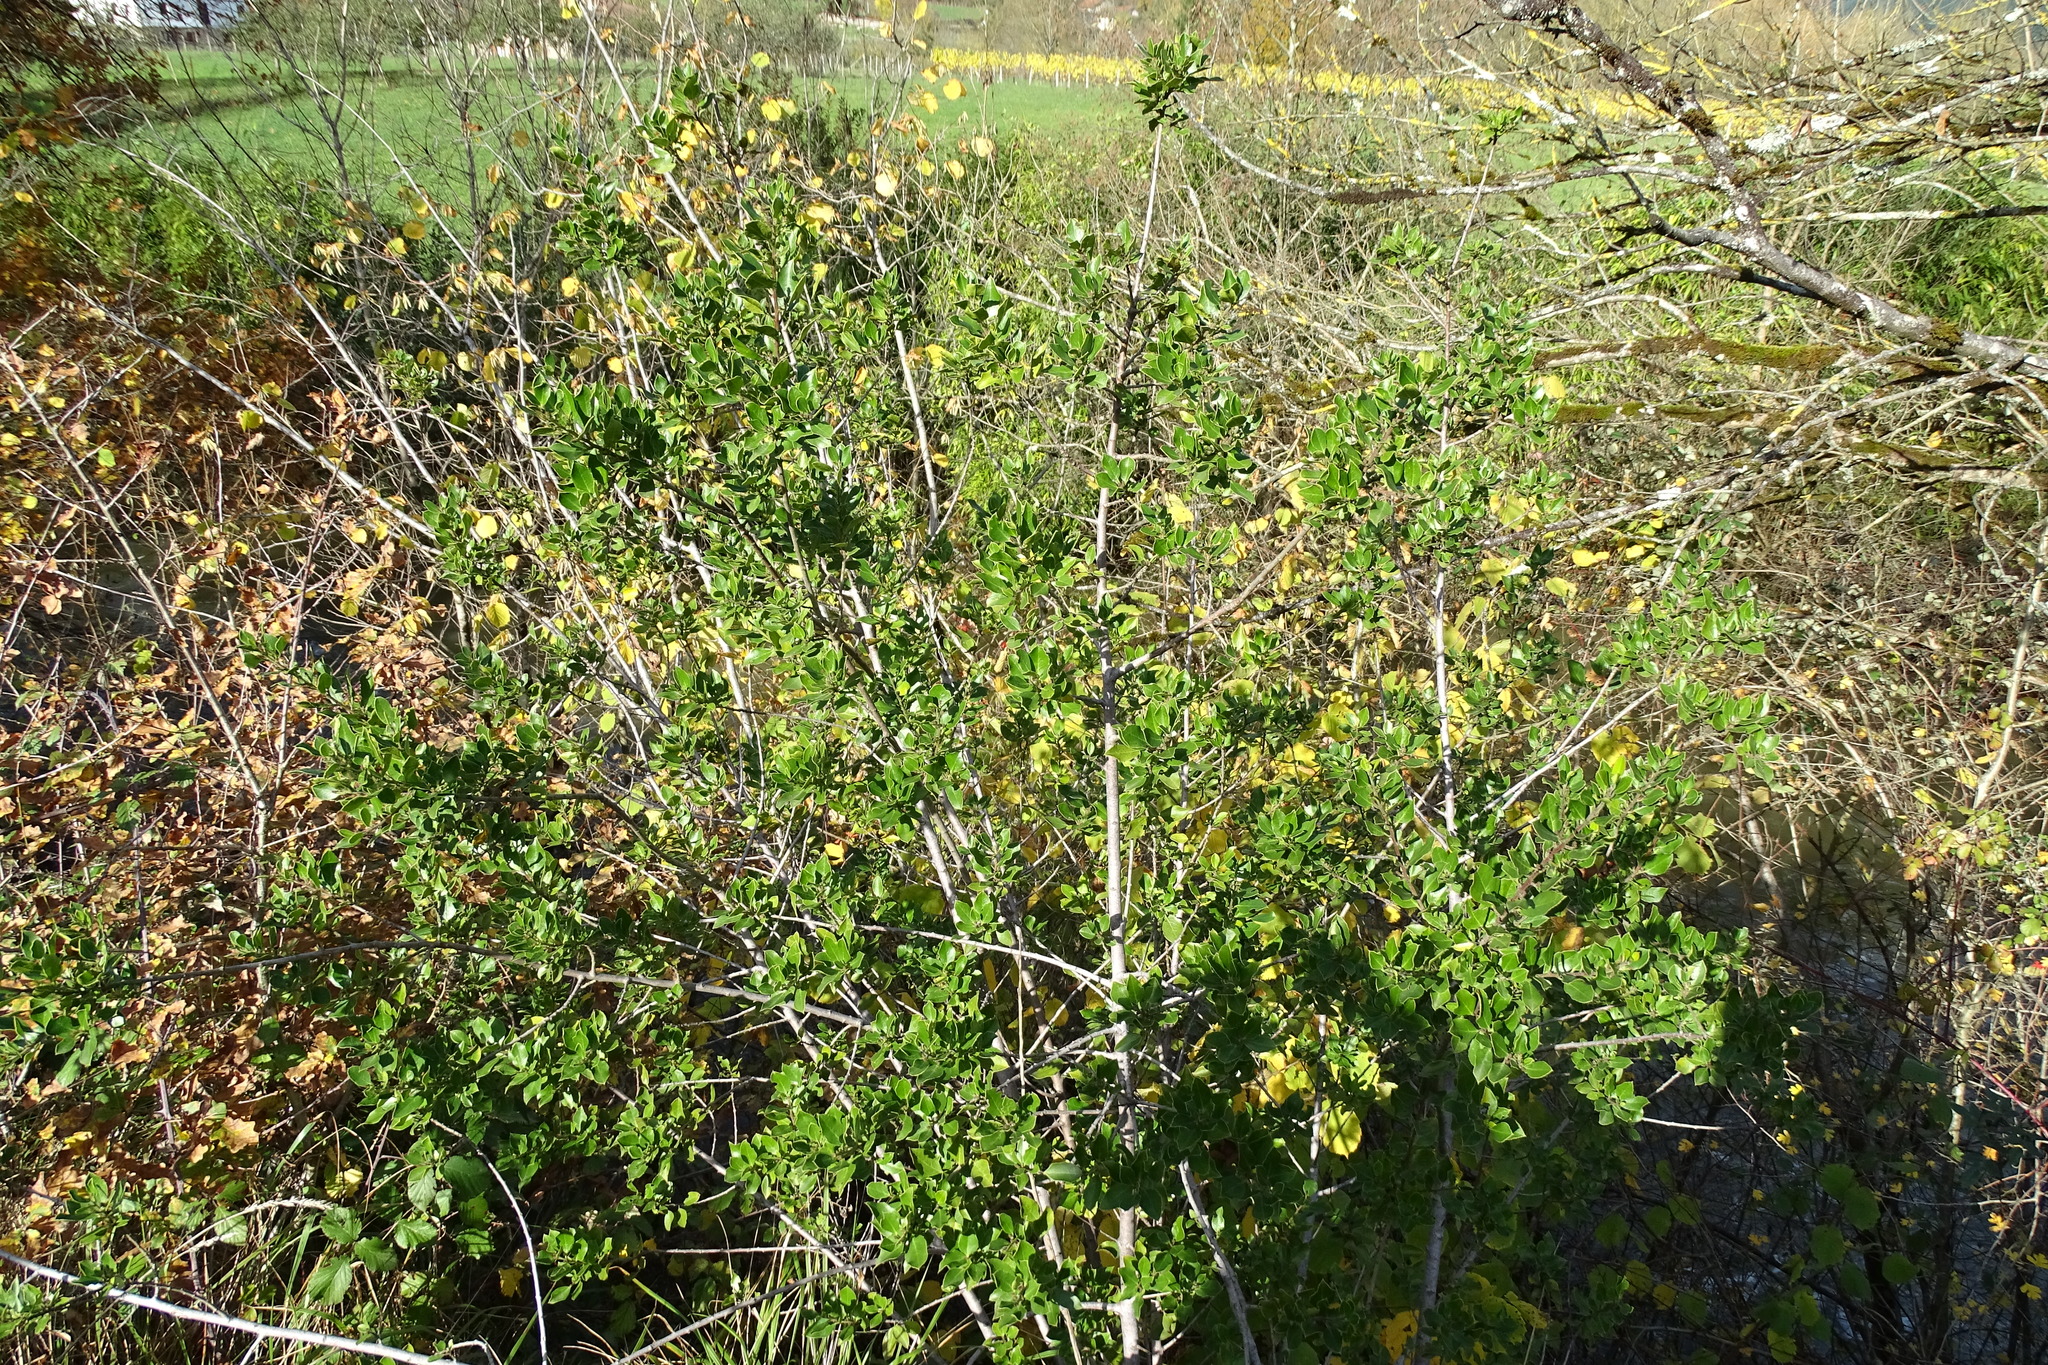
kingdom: Plantae
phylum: Tracheophyta
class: Magnoliopsida
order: Rosales
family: Rhamnaceae
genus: Rhamnus
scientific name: Rhamnus alaternus
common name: Mediterranean buckthorn
